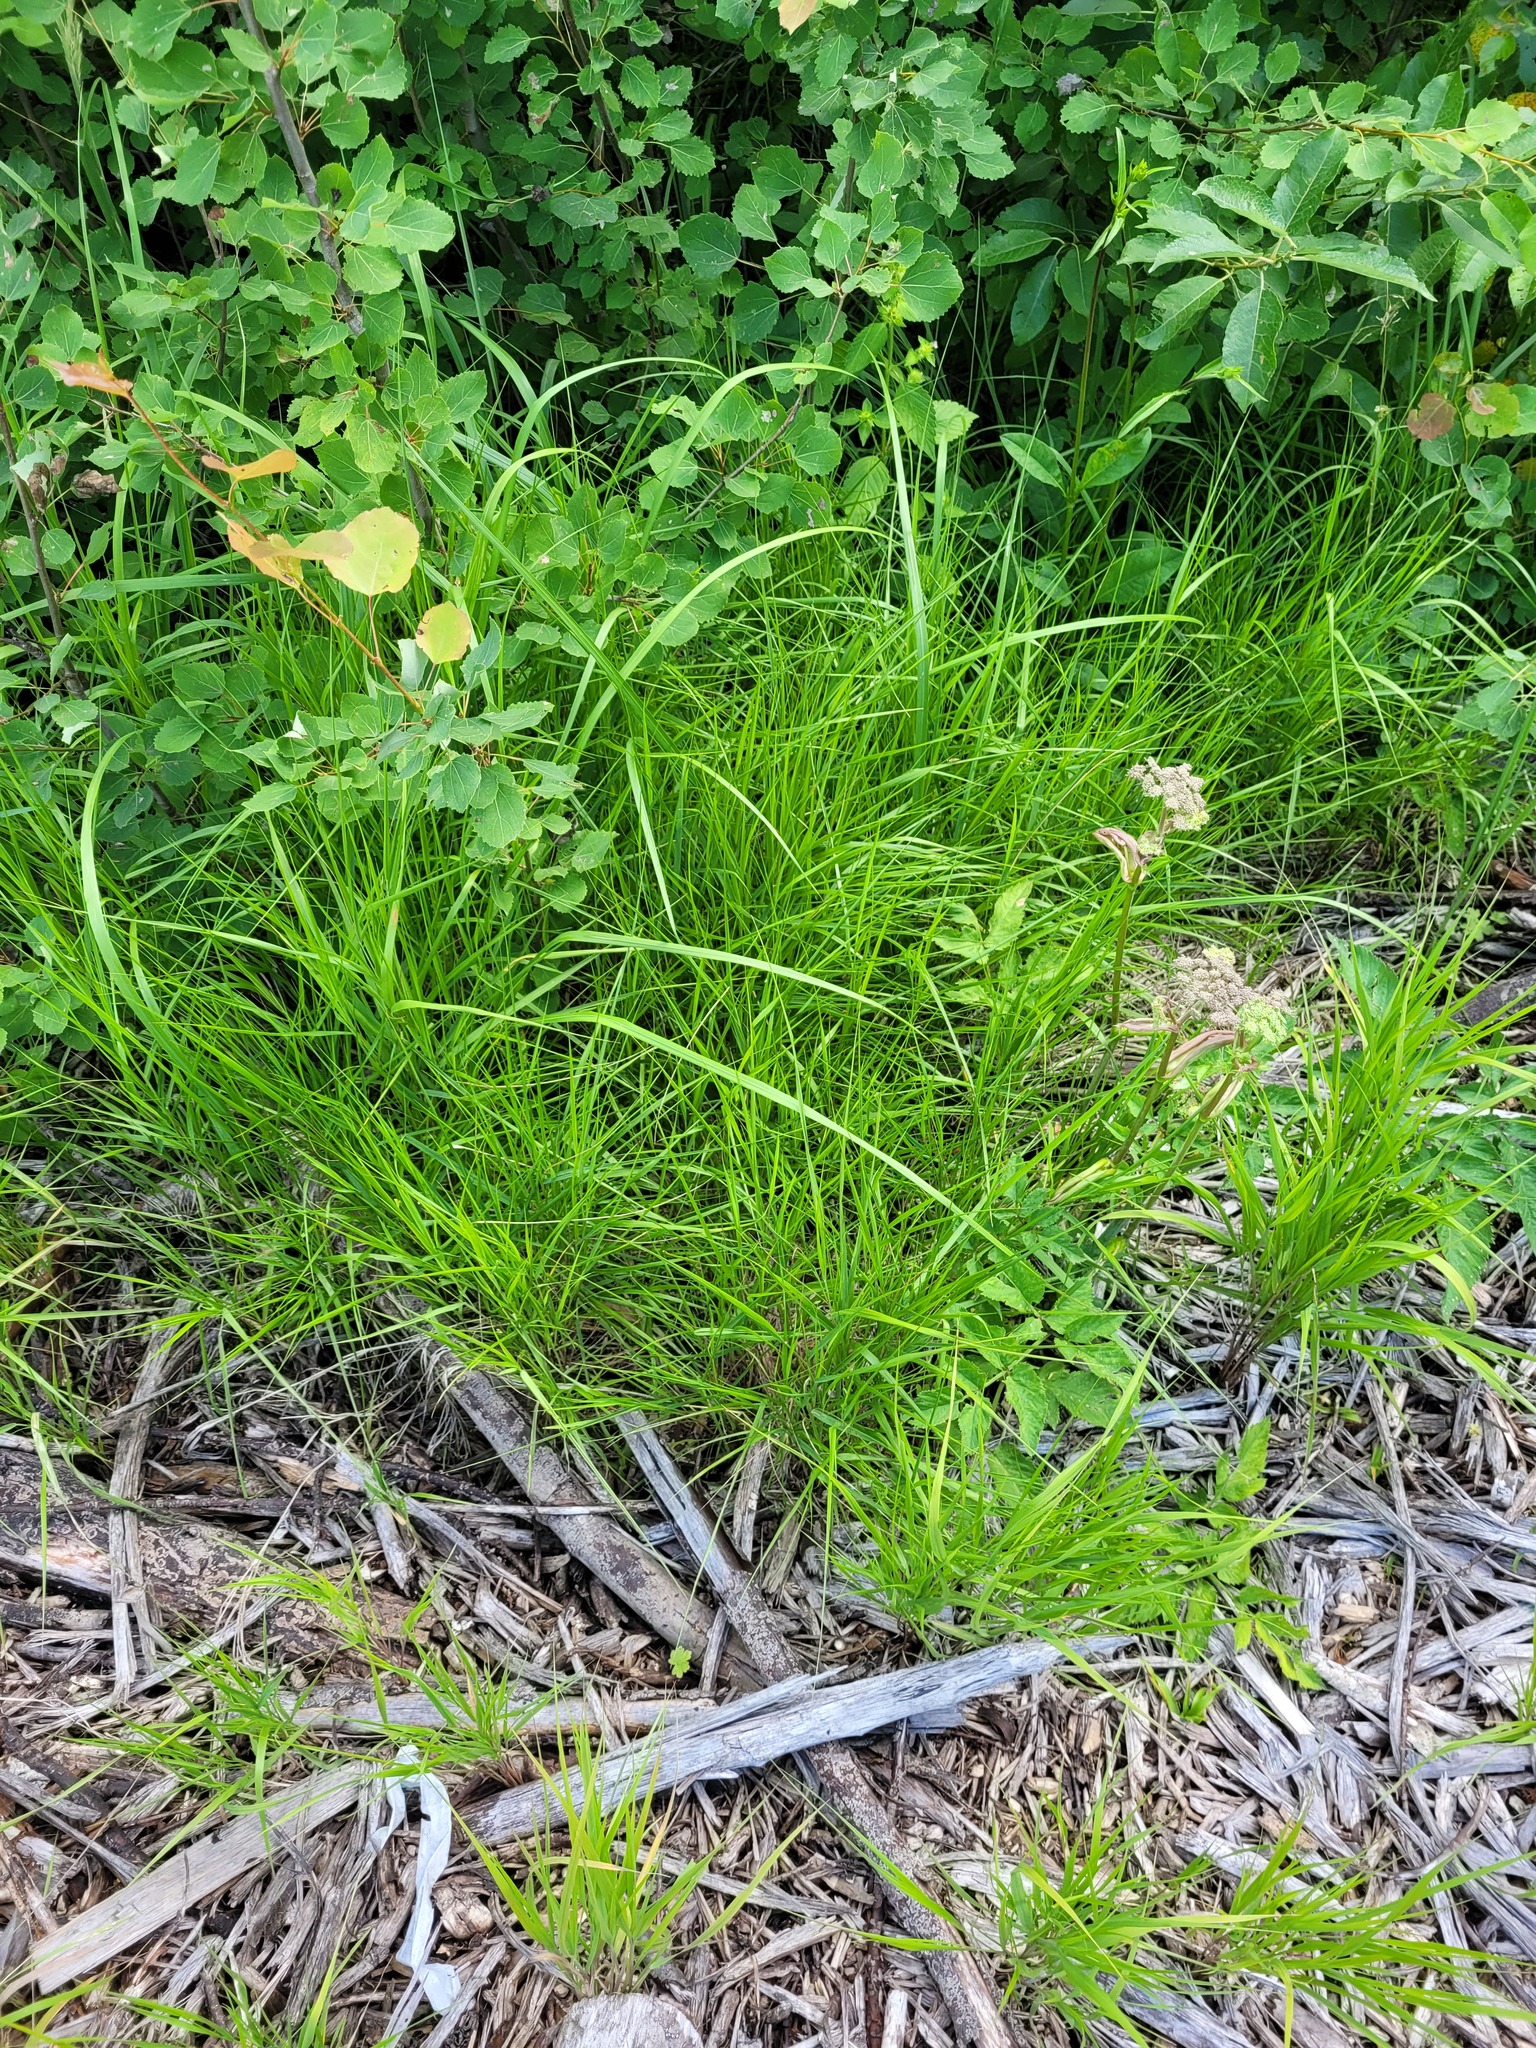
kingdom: Plantae
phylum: Tracheophyta
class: Liliopsida
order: Poales
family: Poaceae
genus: Calamagrostis
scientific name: Calamagrostis canescens
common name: Purple small-reed
